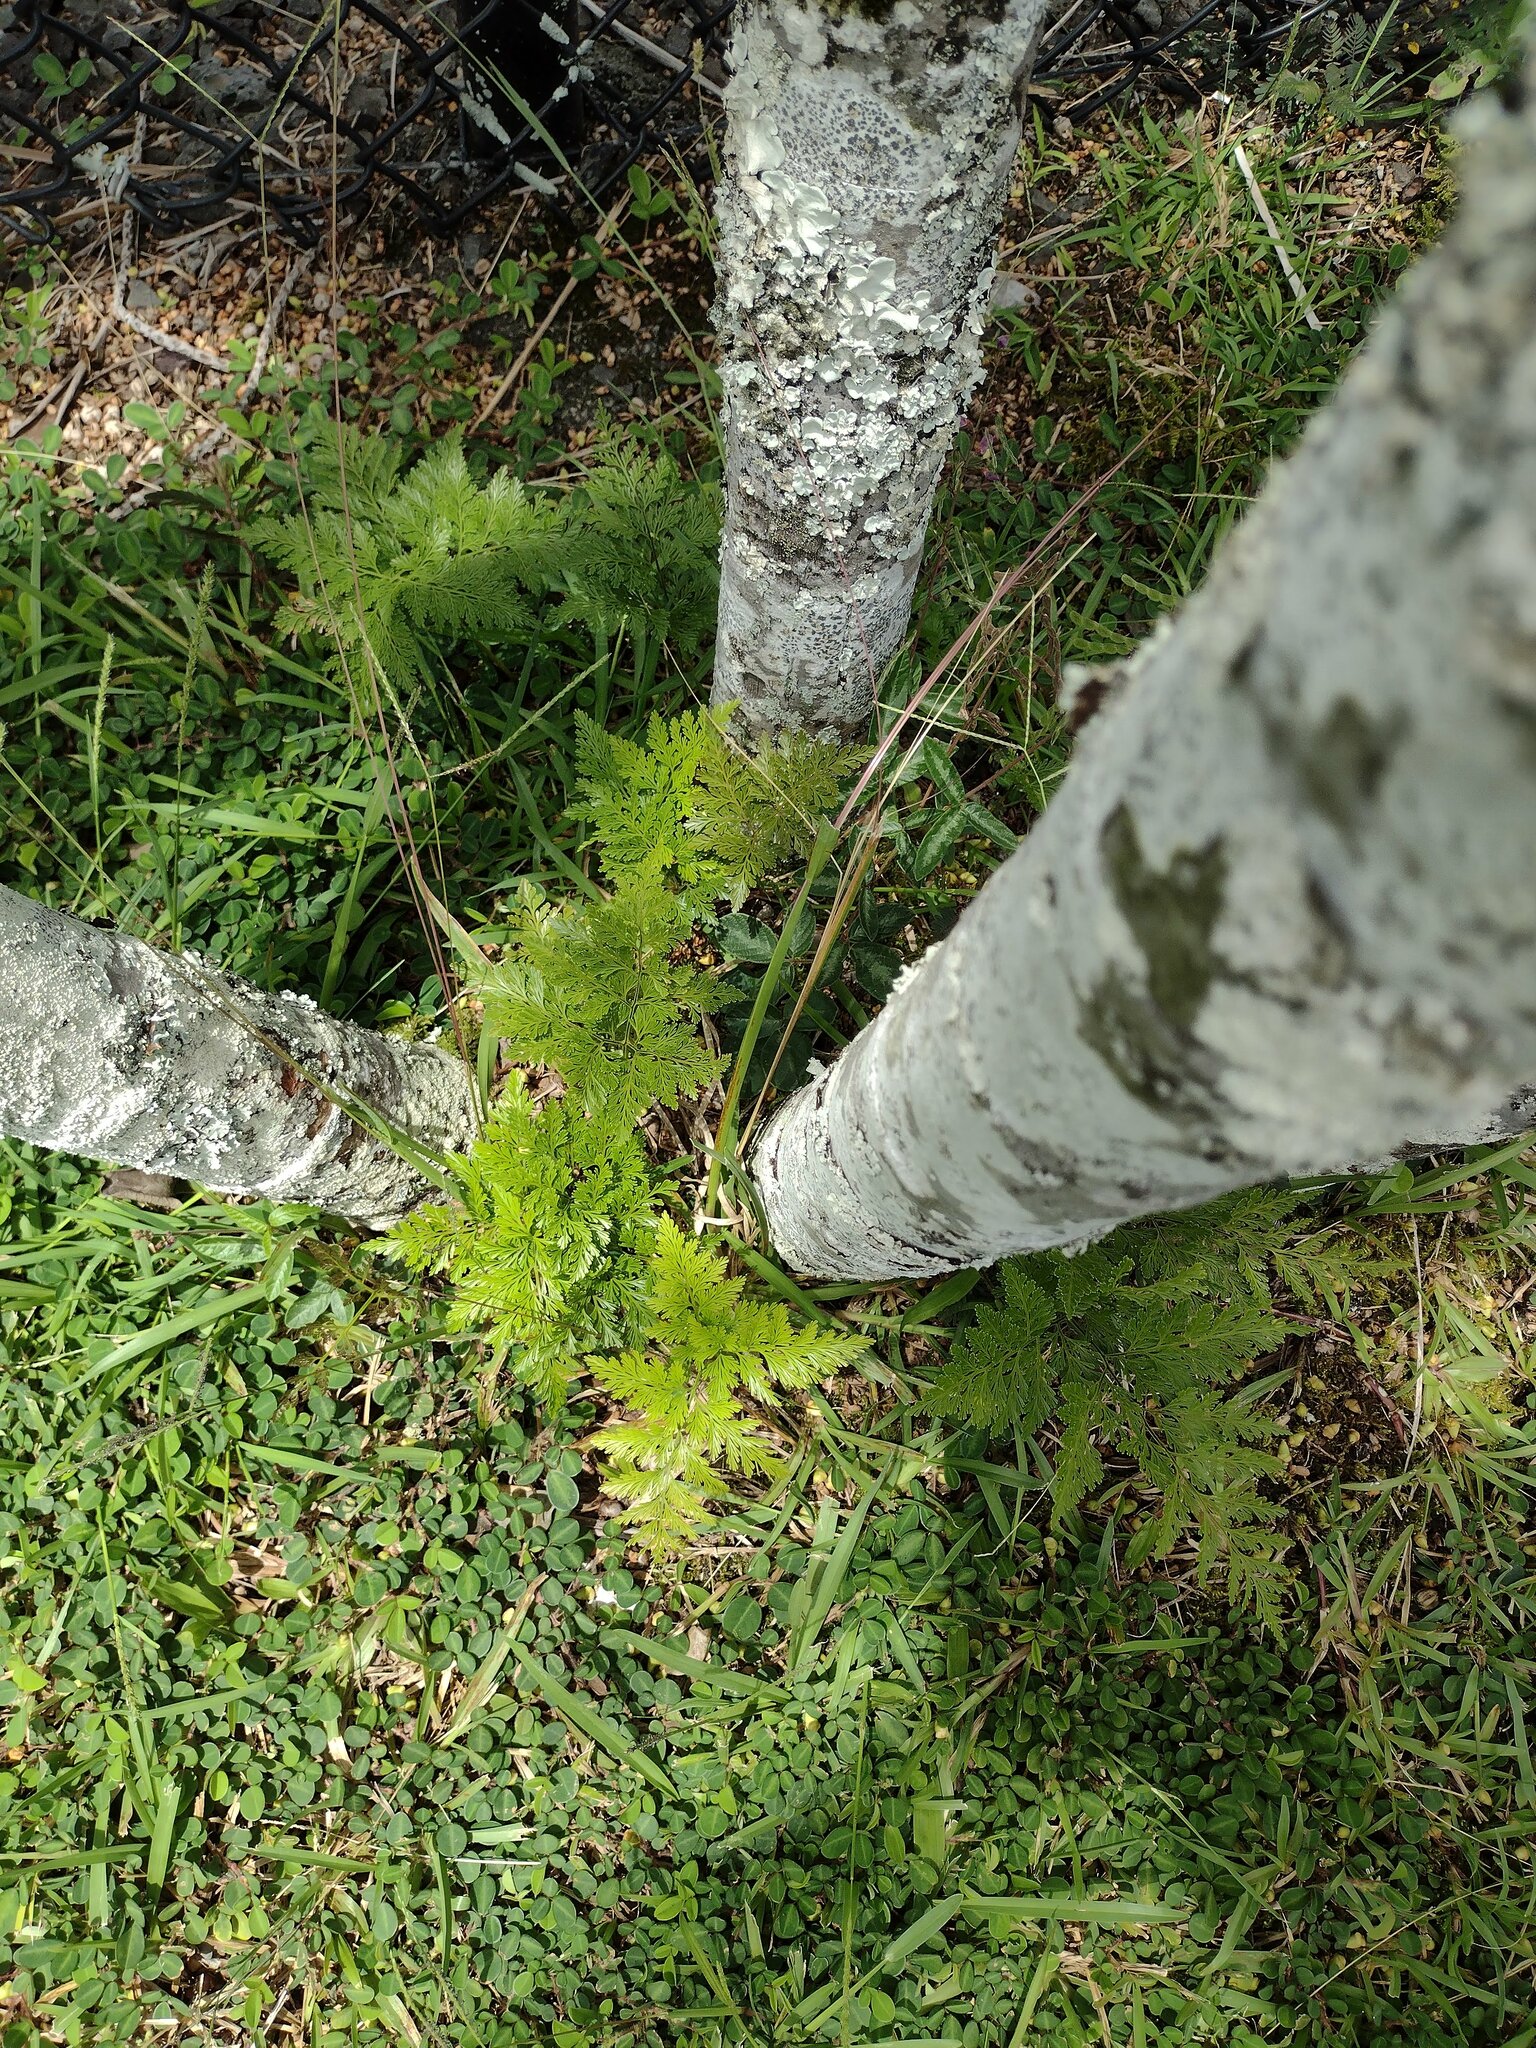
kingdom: Plantae
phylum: Tracheophyta
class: Polypodiopsida
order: Polypodiales
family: Davalliaceae
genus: Davallia
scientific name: Davallia fejeensis
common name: Lacy hare's-foot fern
